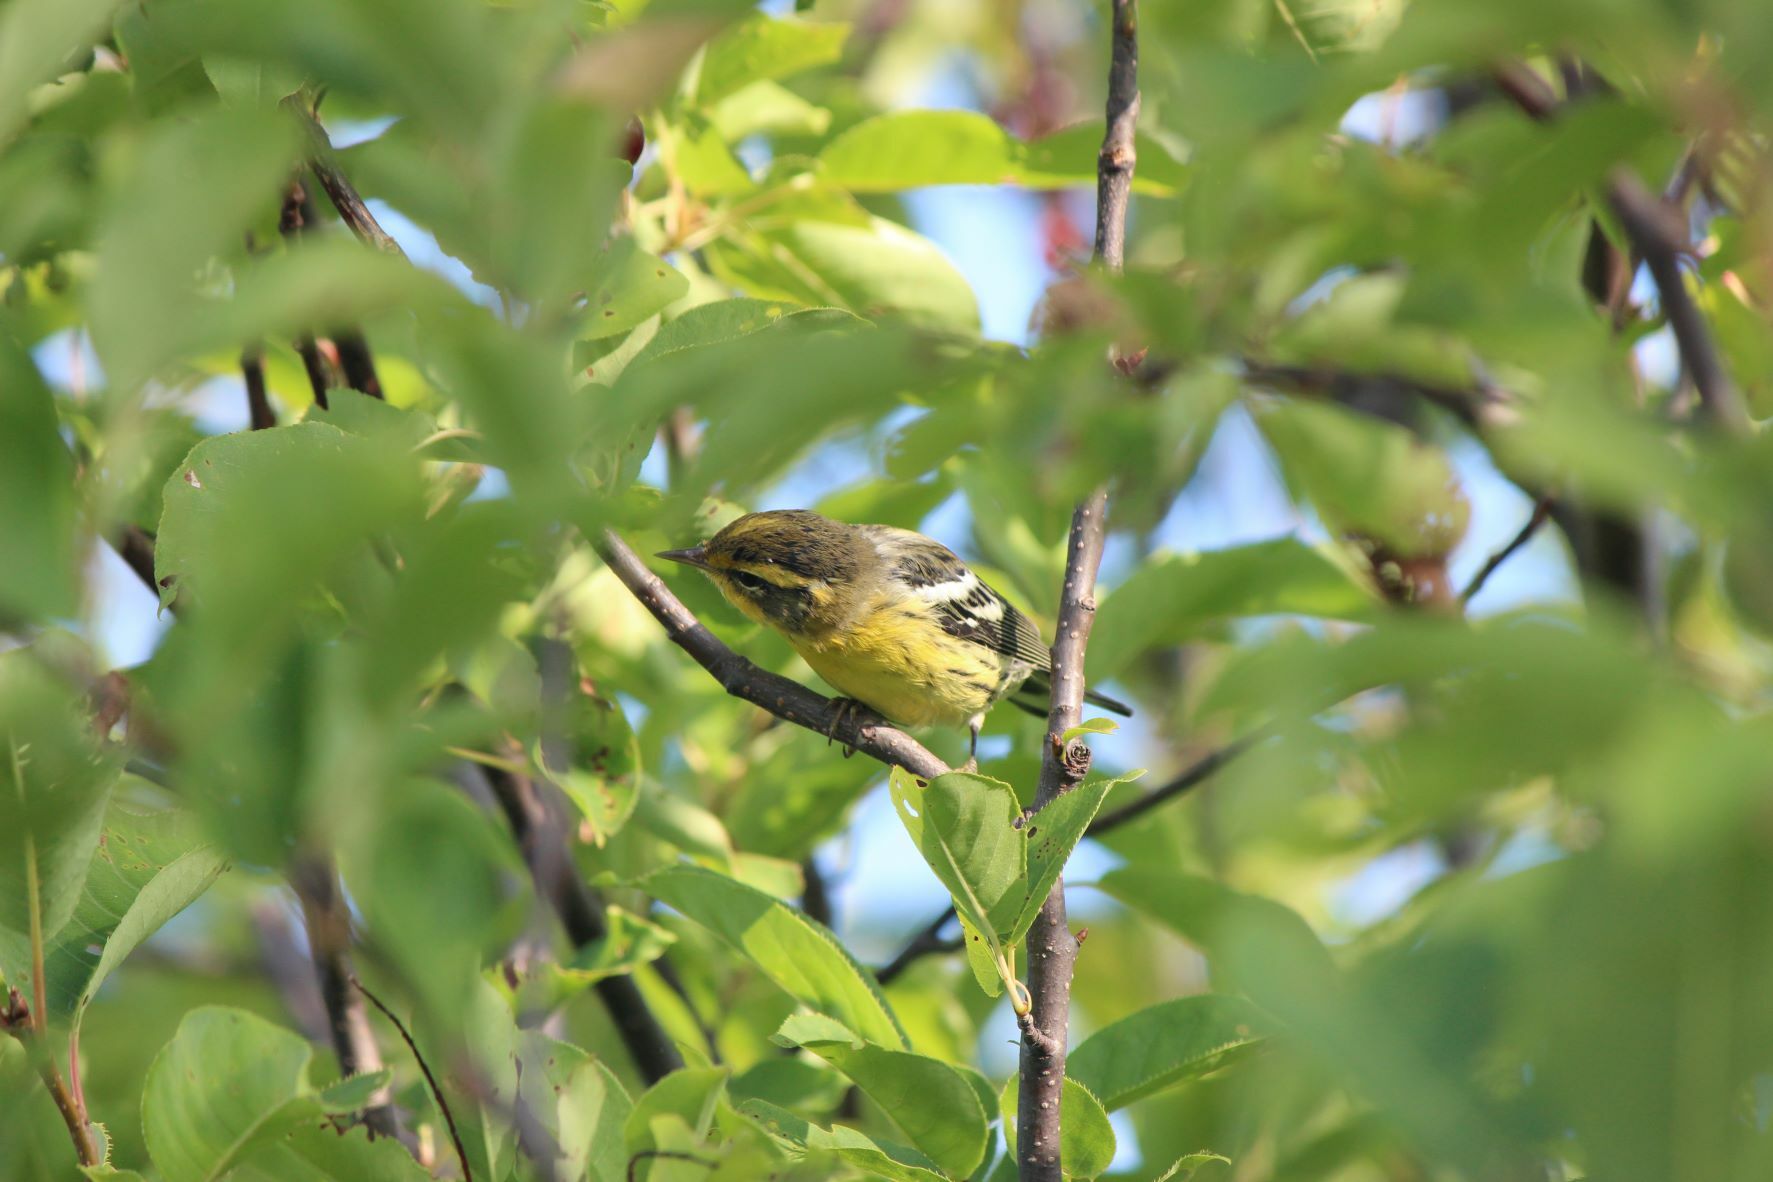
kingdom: Animalia
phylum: Chordata
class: Aves
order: Passeriformes
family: Parulidae
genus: Setophaga
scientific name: Setophaga fusca
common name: Blackburnian warbler
